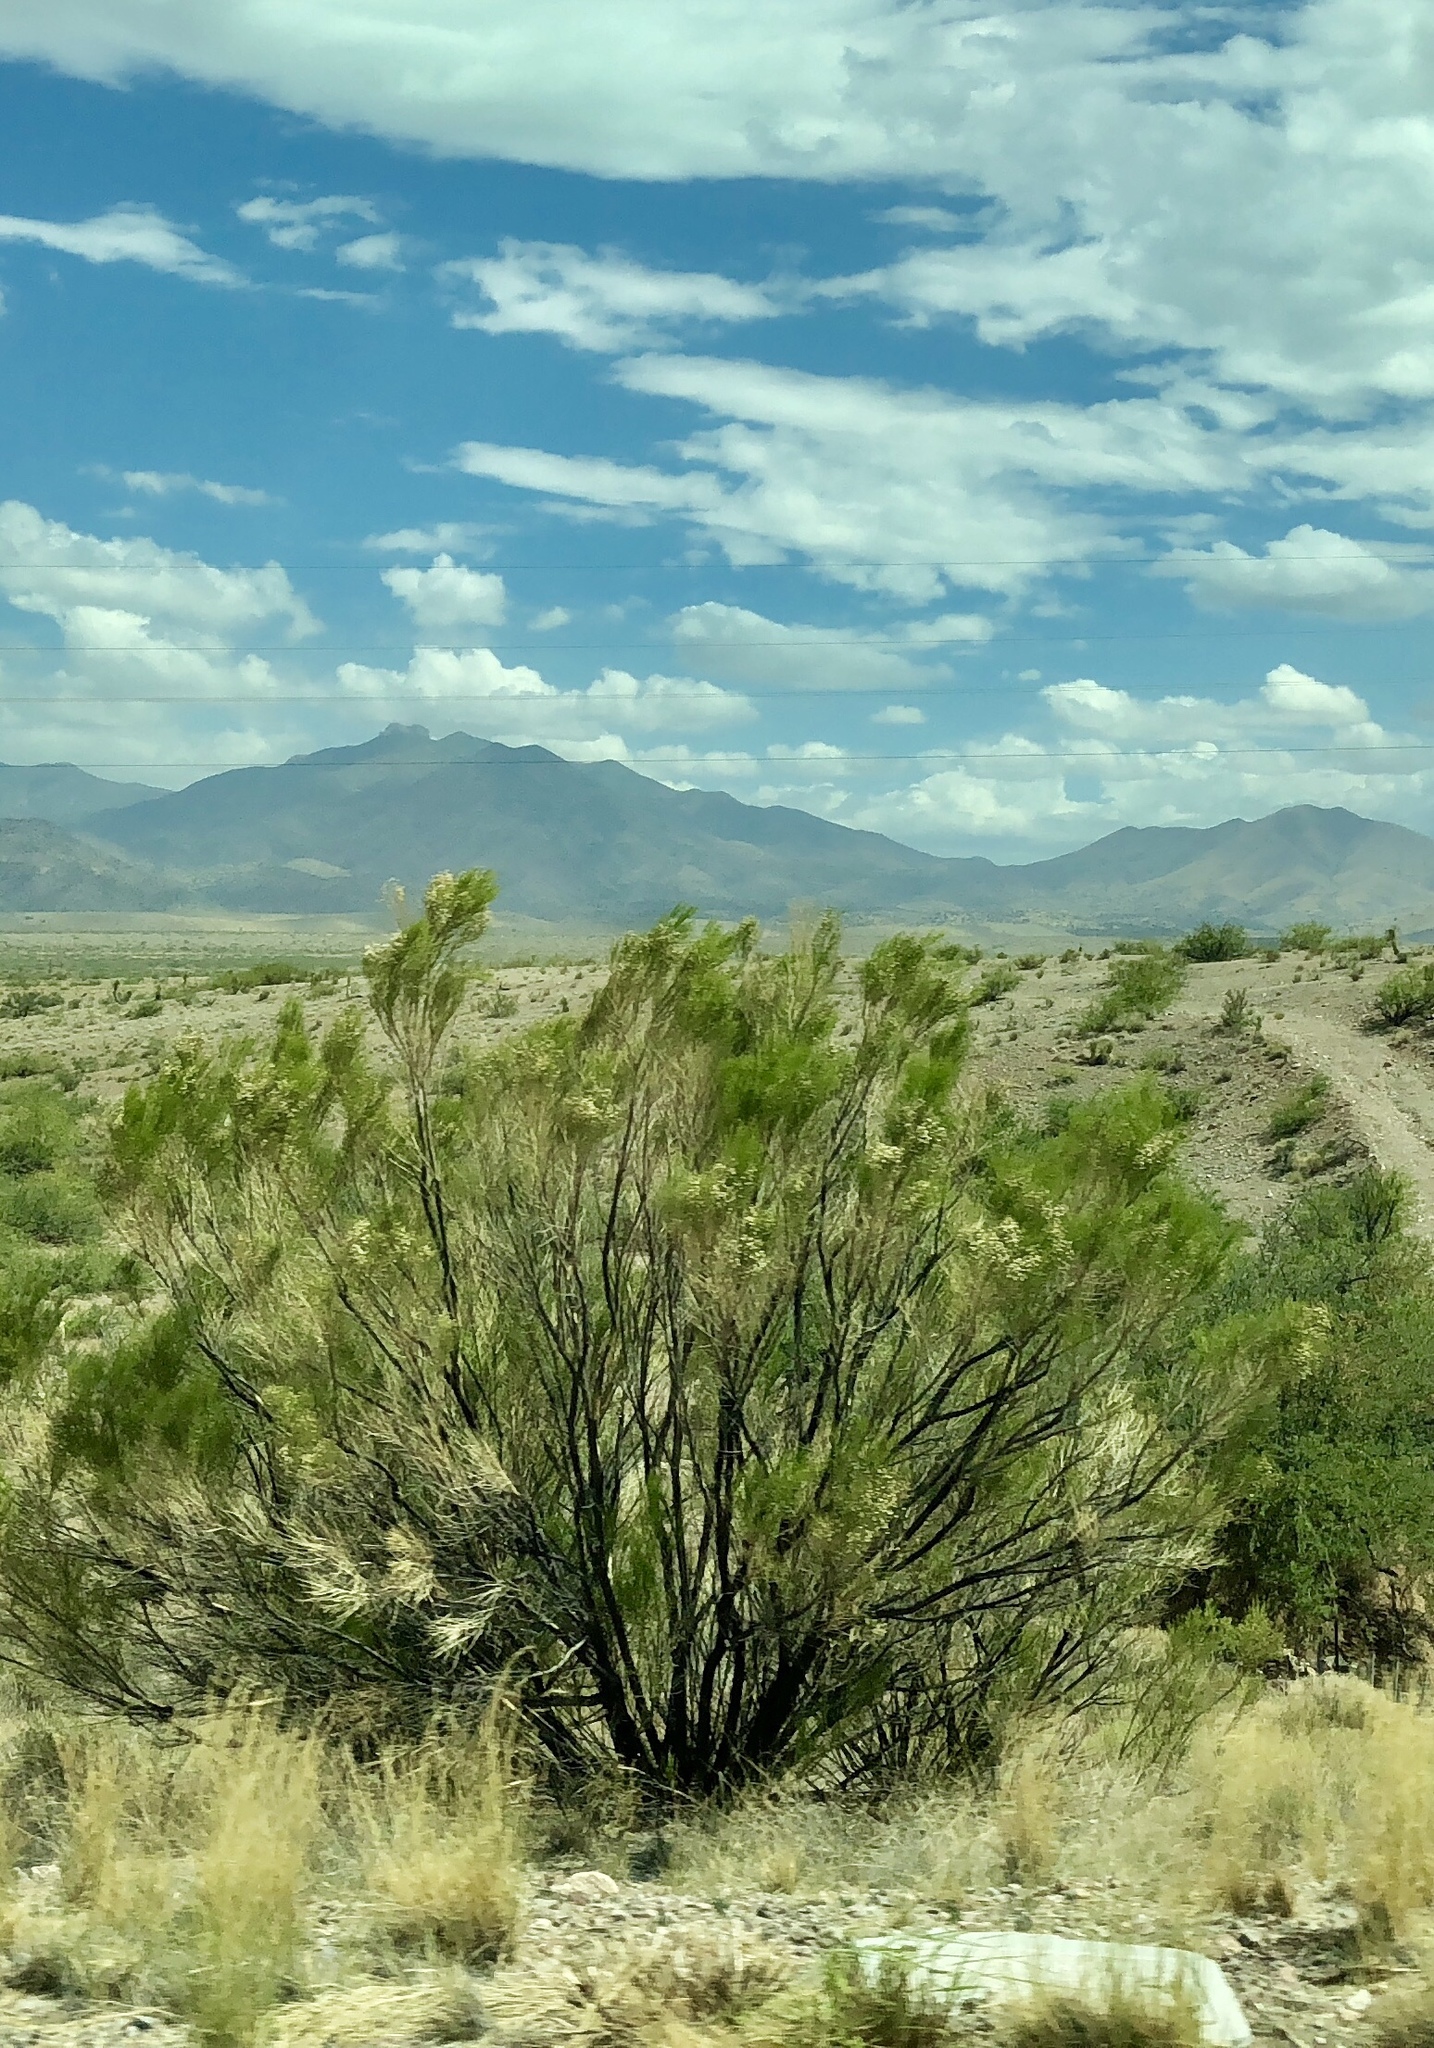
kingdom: Plantae
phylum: Tracheophyta
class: Magnoliopsida
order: Asterales
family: Asteraceae
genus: Baccharis
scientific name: Baccharis sarothroides
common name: Desert-broom
